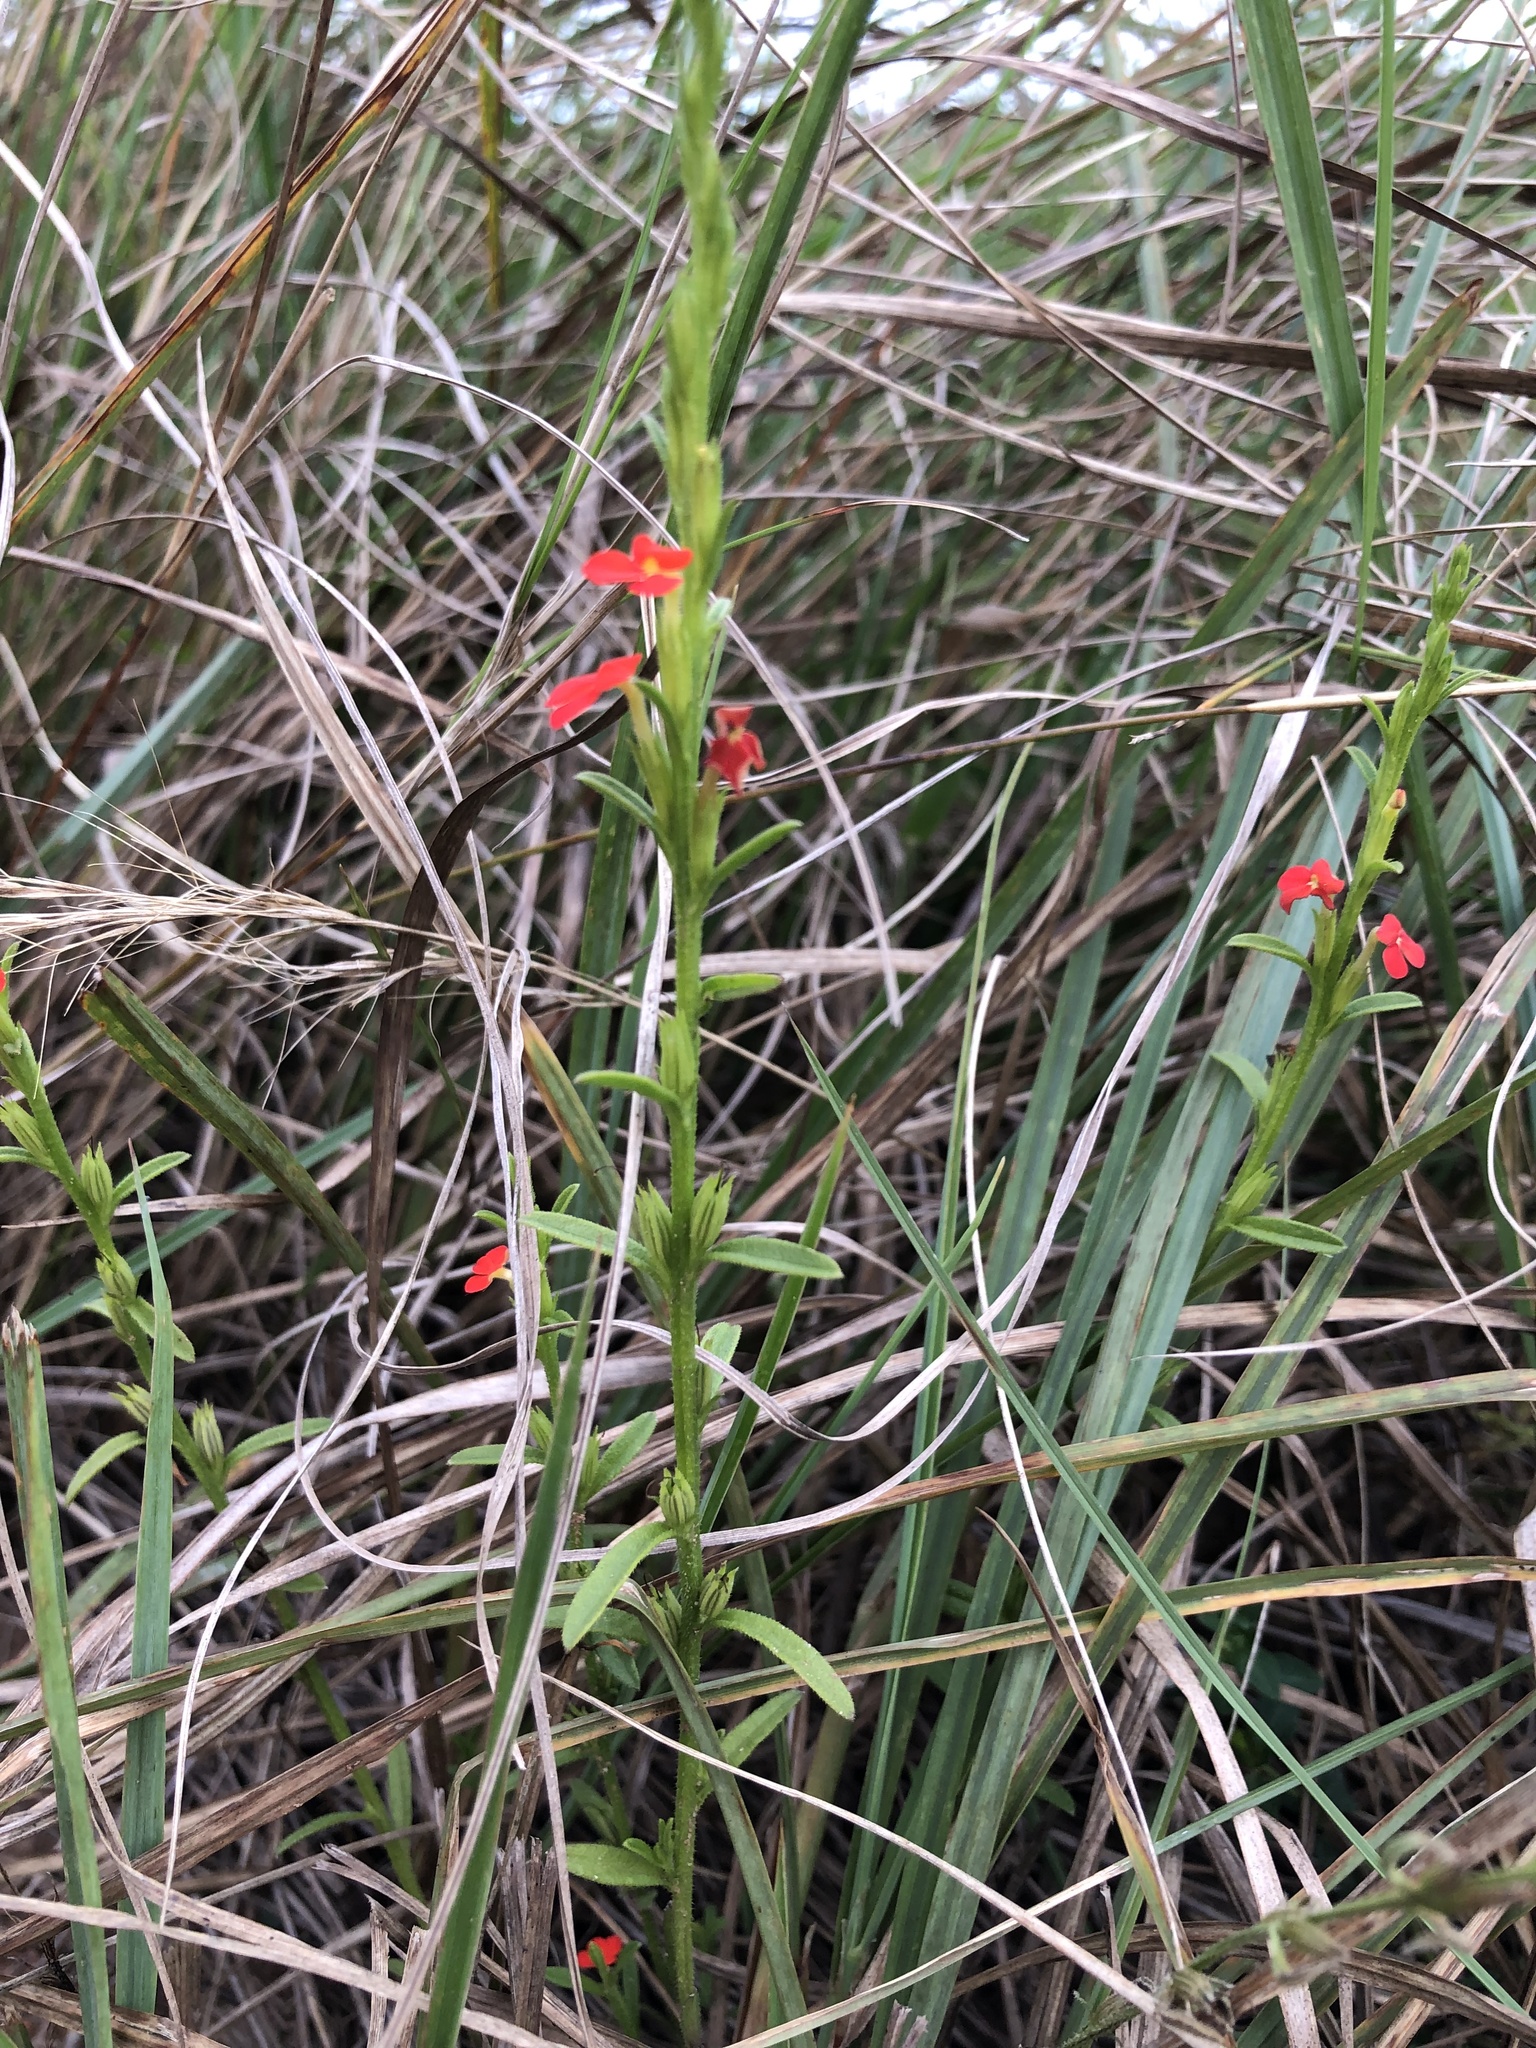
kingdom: Plantae
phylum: Tracheophyta
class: Magnoliopsida
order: Lamiales
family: Orobanchaceae
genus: Striga
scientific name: Striga asiatica
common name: Asiatic witchweed
